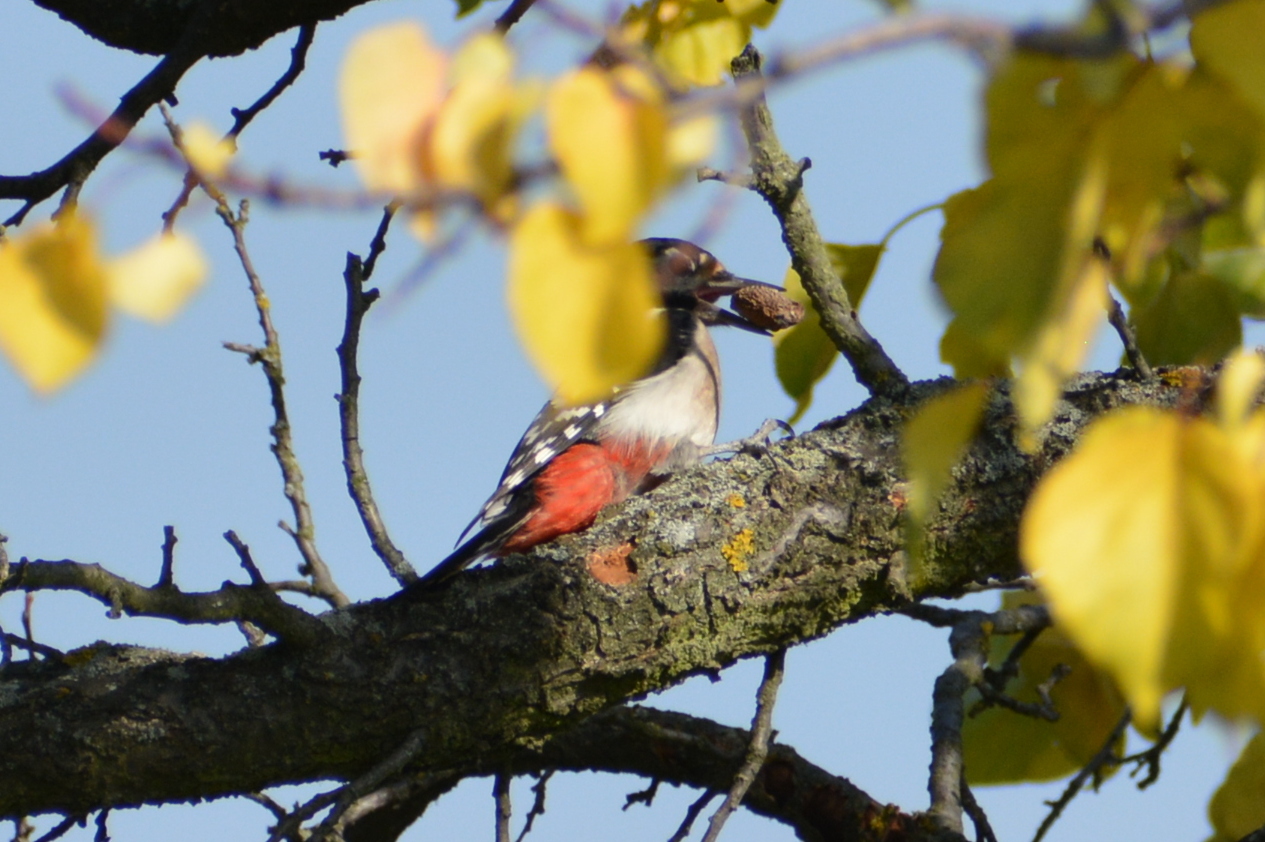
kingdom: Animalia
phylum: Chordata
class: Aves
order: Piciformes
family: Picidae
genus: Dendrocopos
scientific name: Dendrocopos major
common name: Great spotted woodpecker
